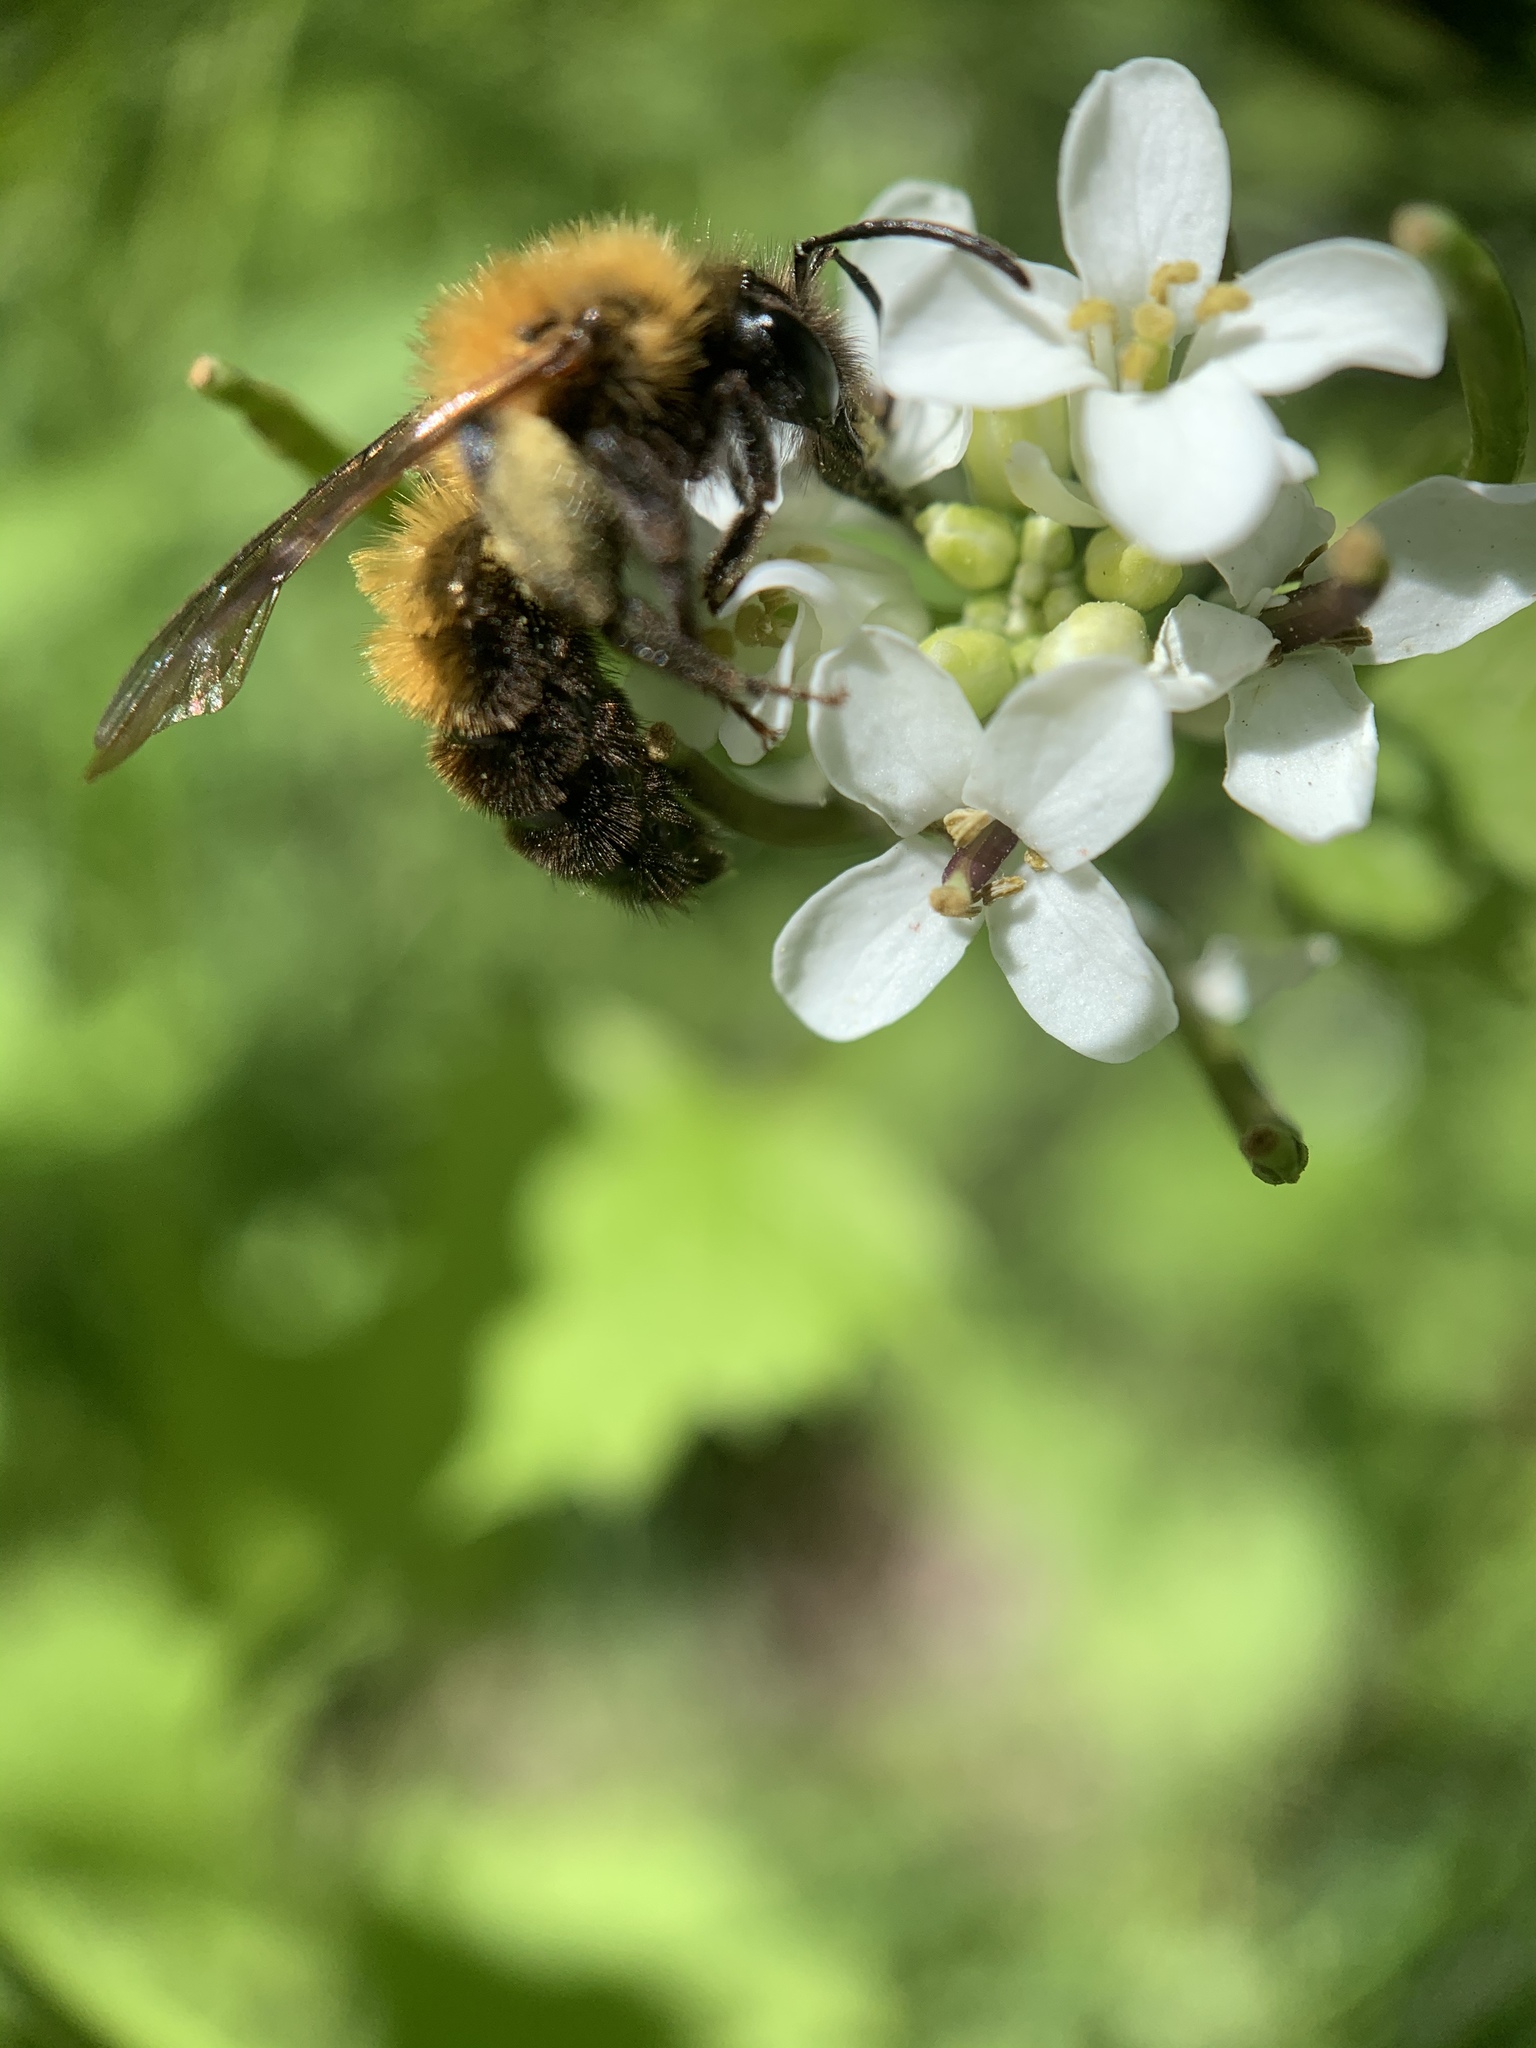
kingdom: Animalia
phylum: Arthropoda
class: Insecta
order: Hymenoptera
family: Andrenidae
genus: Andrena
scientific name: Andrena milwaukeensis
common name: Milwaukee mining bee
